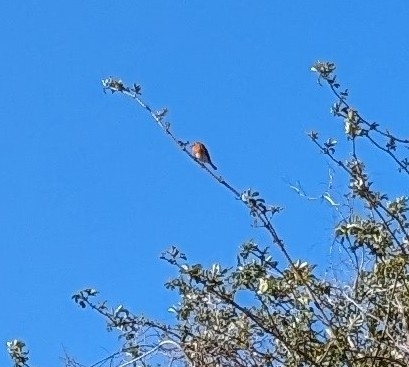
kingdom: Animalia
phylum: Chordata
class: Aves
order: Passeriformes
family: Muscicapidae
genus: Erithacus
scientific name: Erithacus rubecula
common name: European robin
